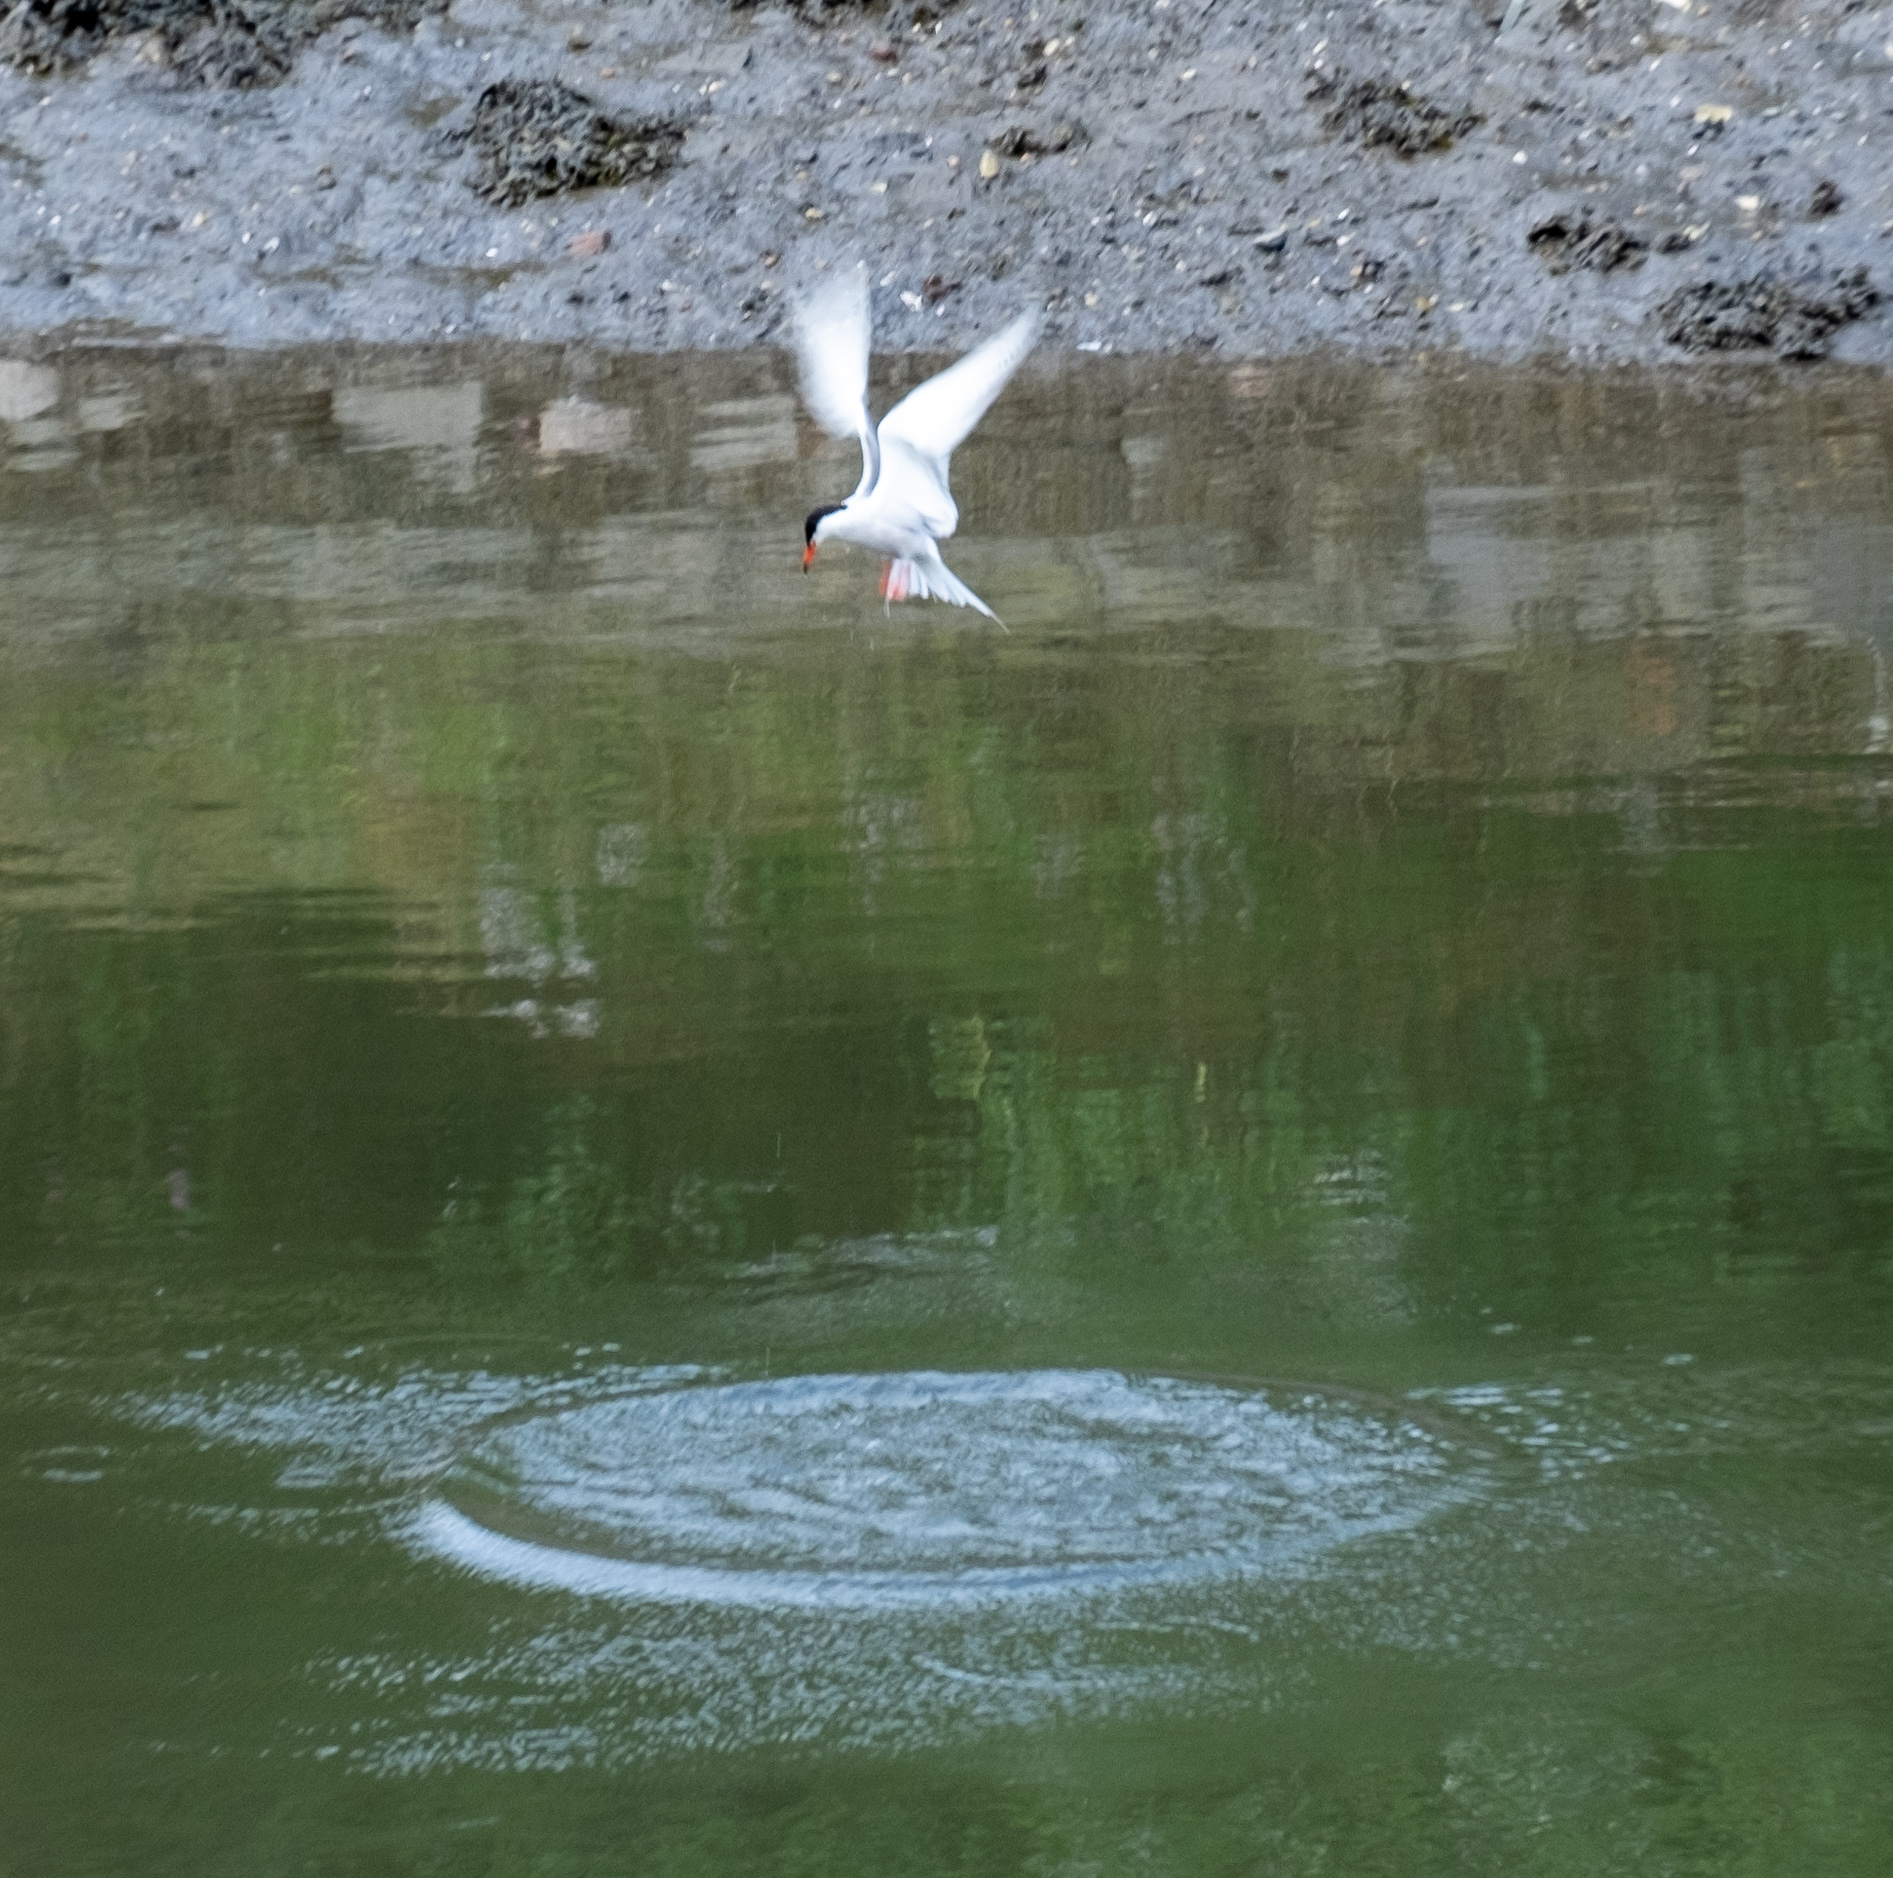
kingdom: Animalia
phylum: Chordata
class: Aves
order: Charadriiformes
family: Laridae
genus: Sterna
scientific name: Sterna hirundo
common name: Common tern
